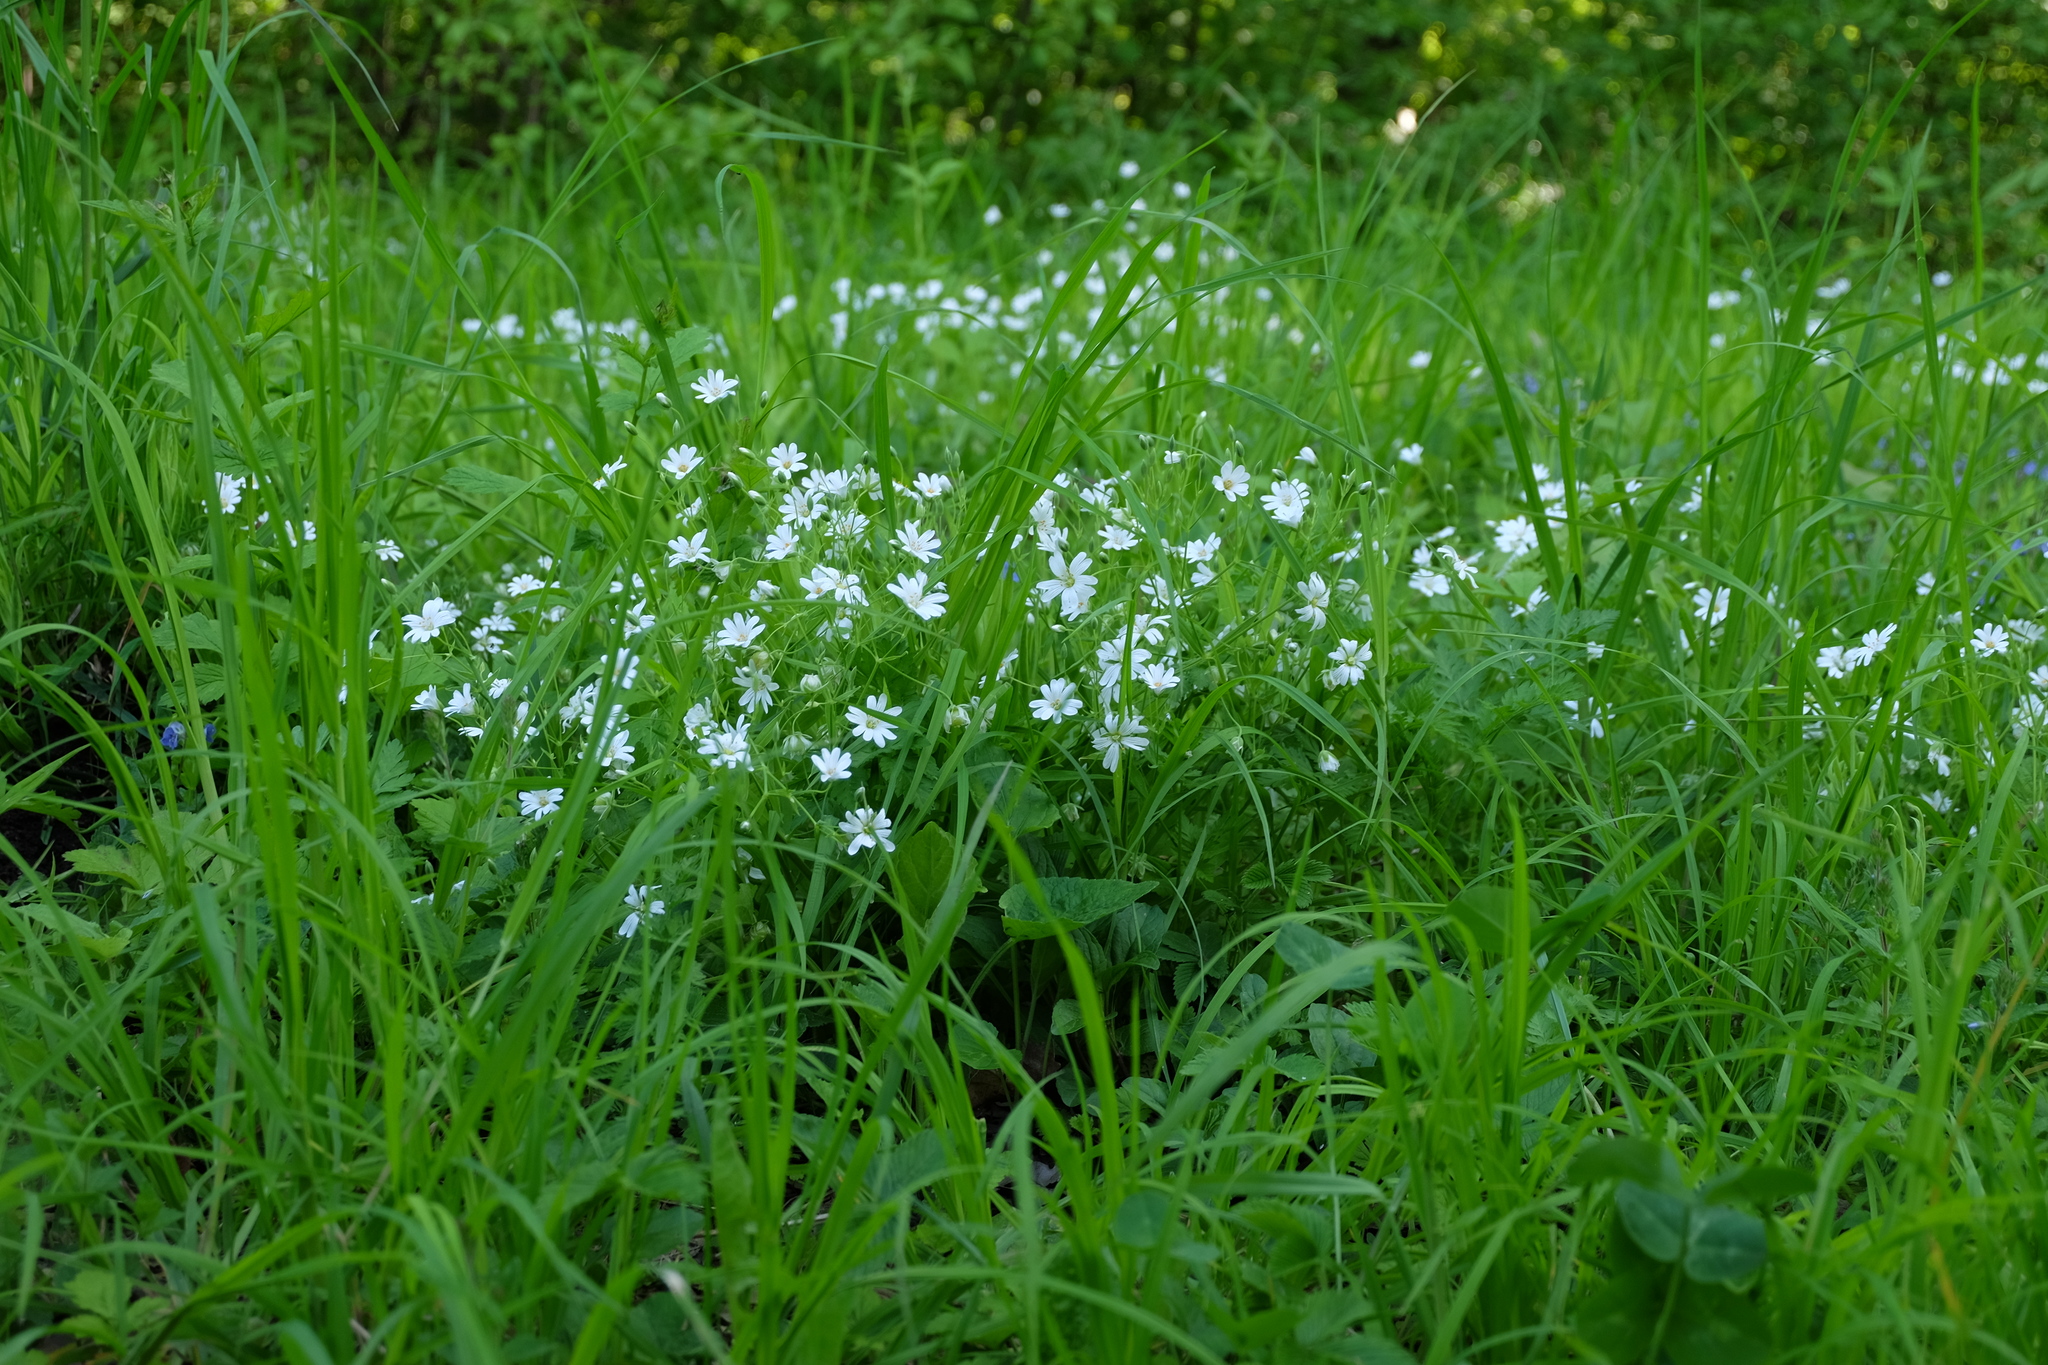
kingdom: Plantae
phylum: Tracheophyta
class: Magnoliopsida
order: Caryophyllales
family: Caryophyllaceae
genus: Rabelera
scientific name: Rabelera holostea
